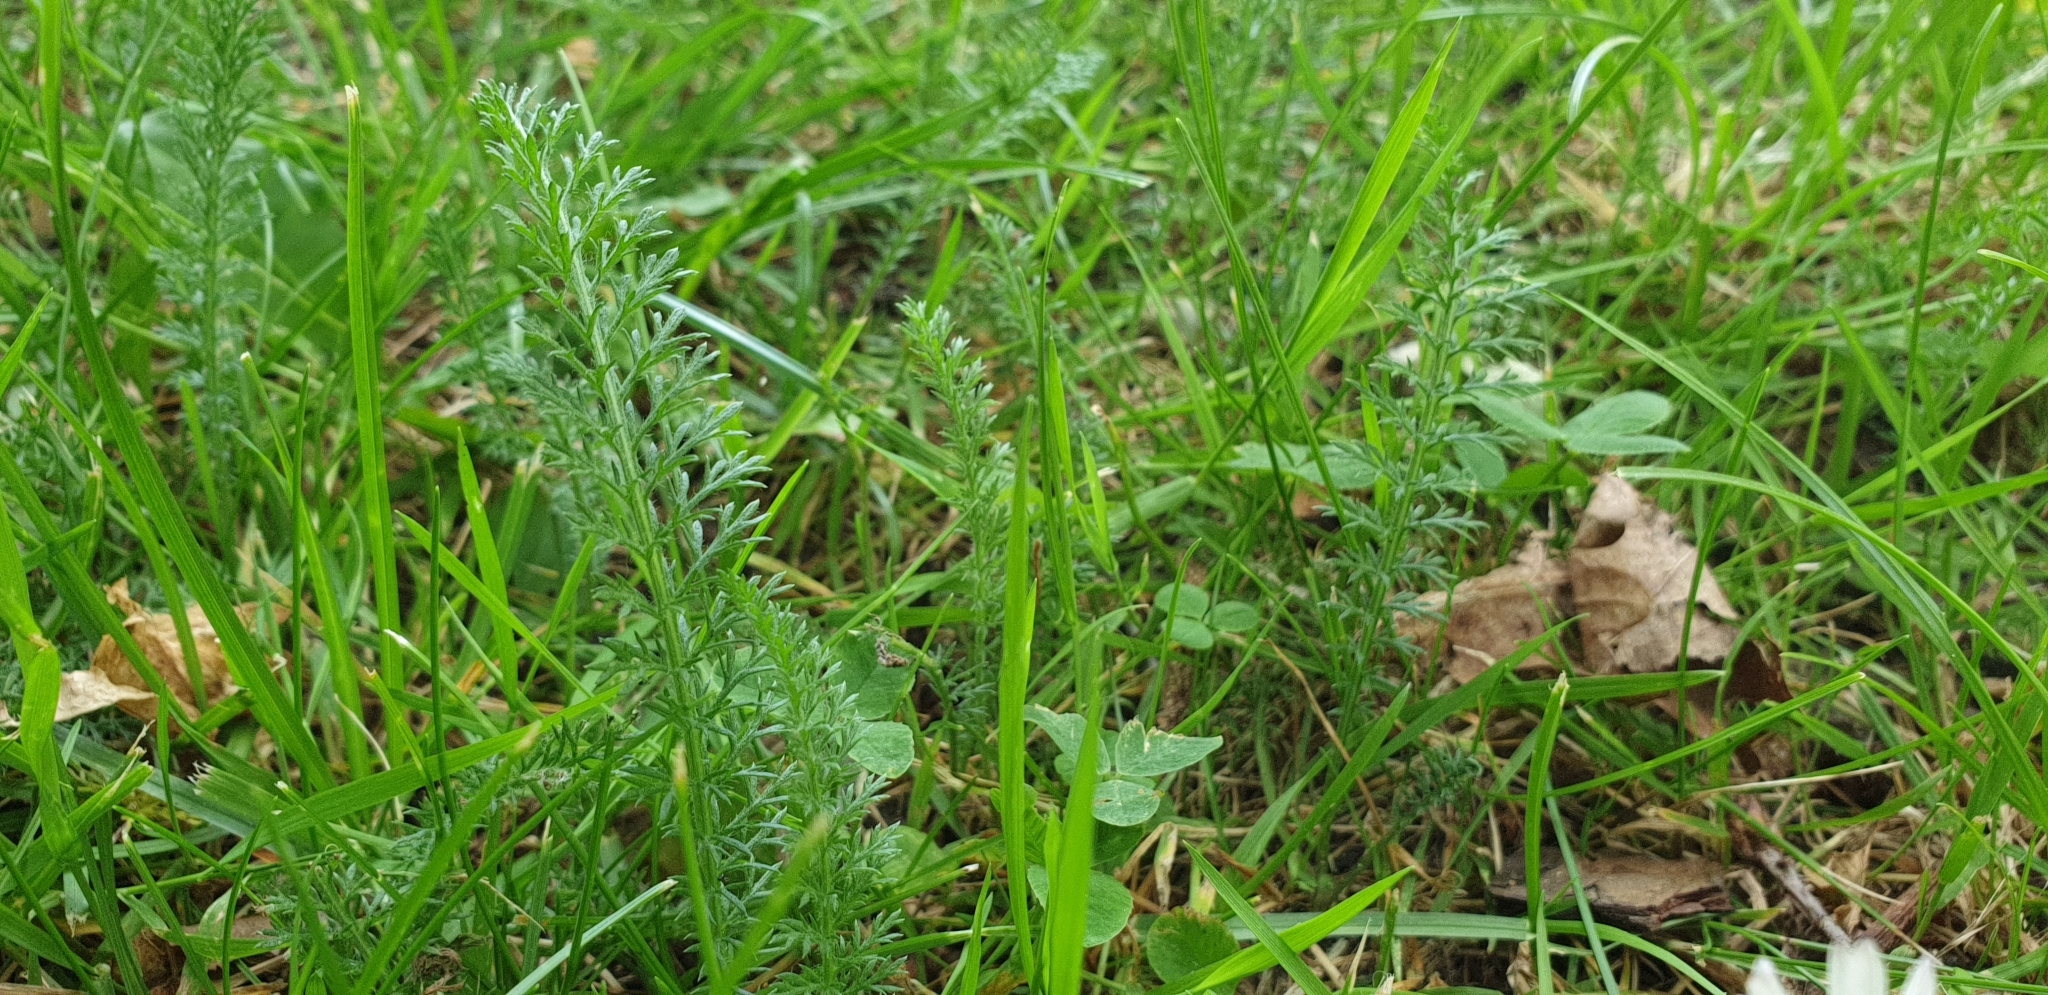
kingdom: Plantae
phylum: Tracheophyta
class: Magnoliopsida
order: Asterales
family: Asteraceae
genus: Achillea
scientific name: Achillea millefolium
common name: Yarrow
